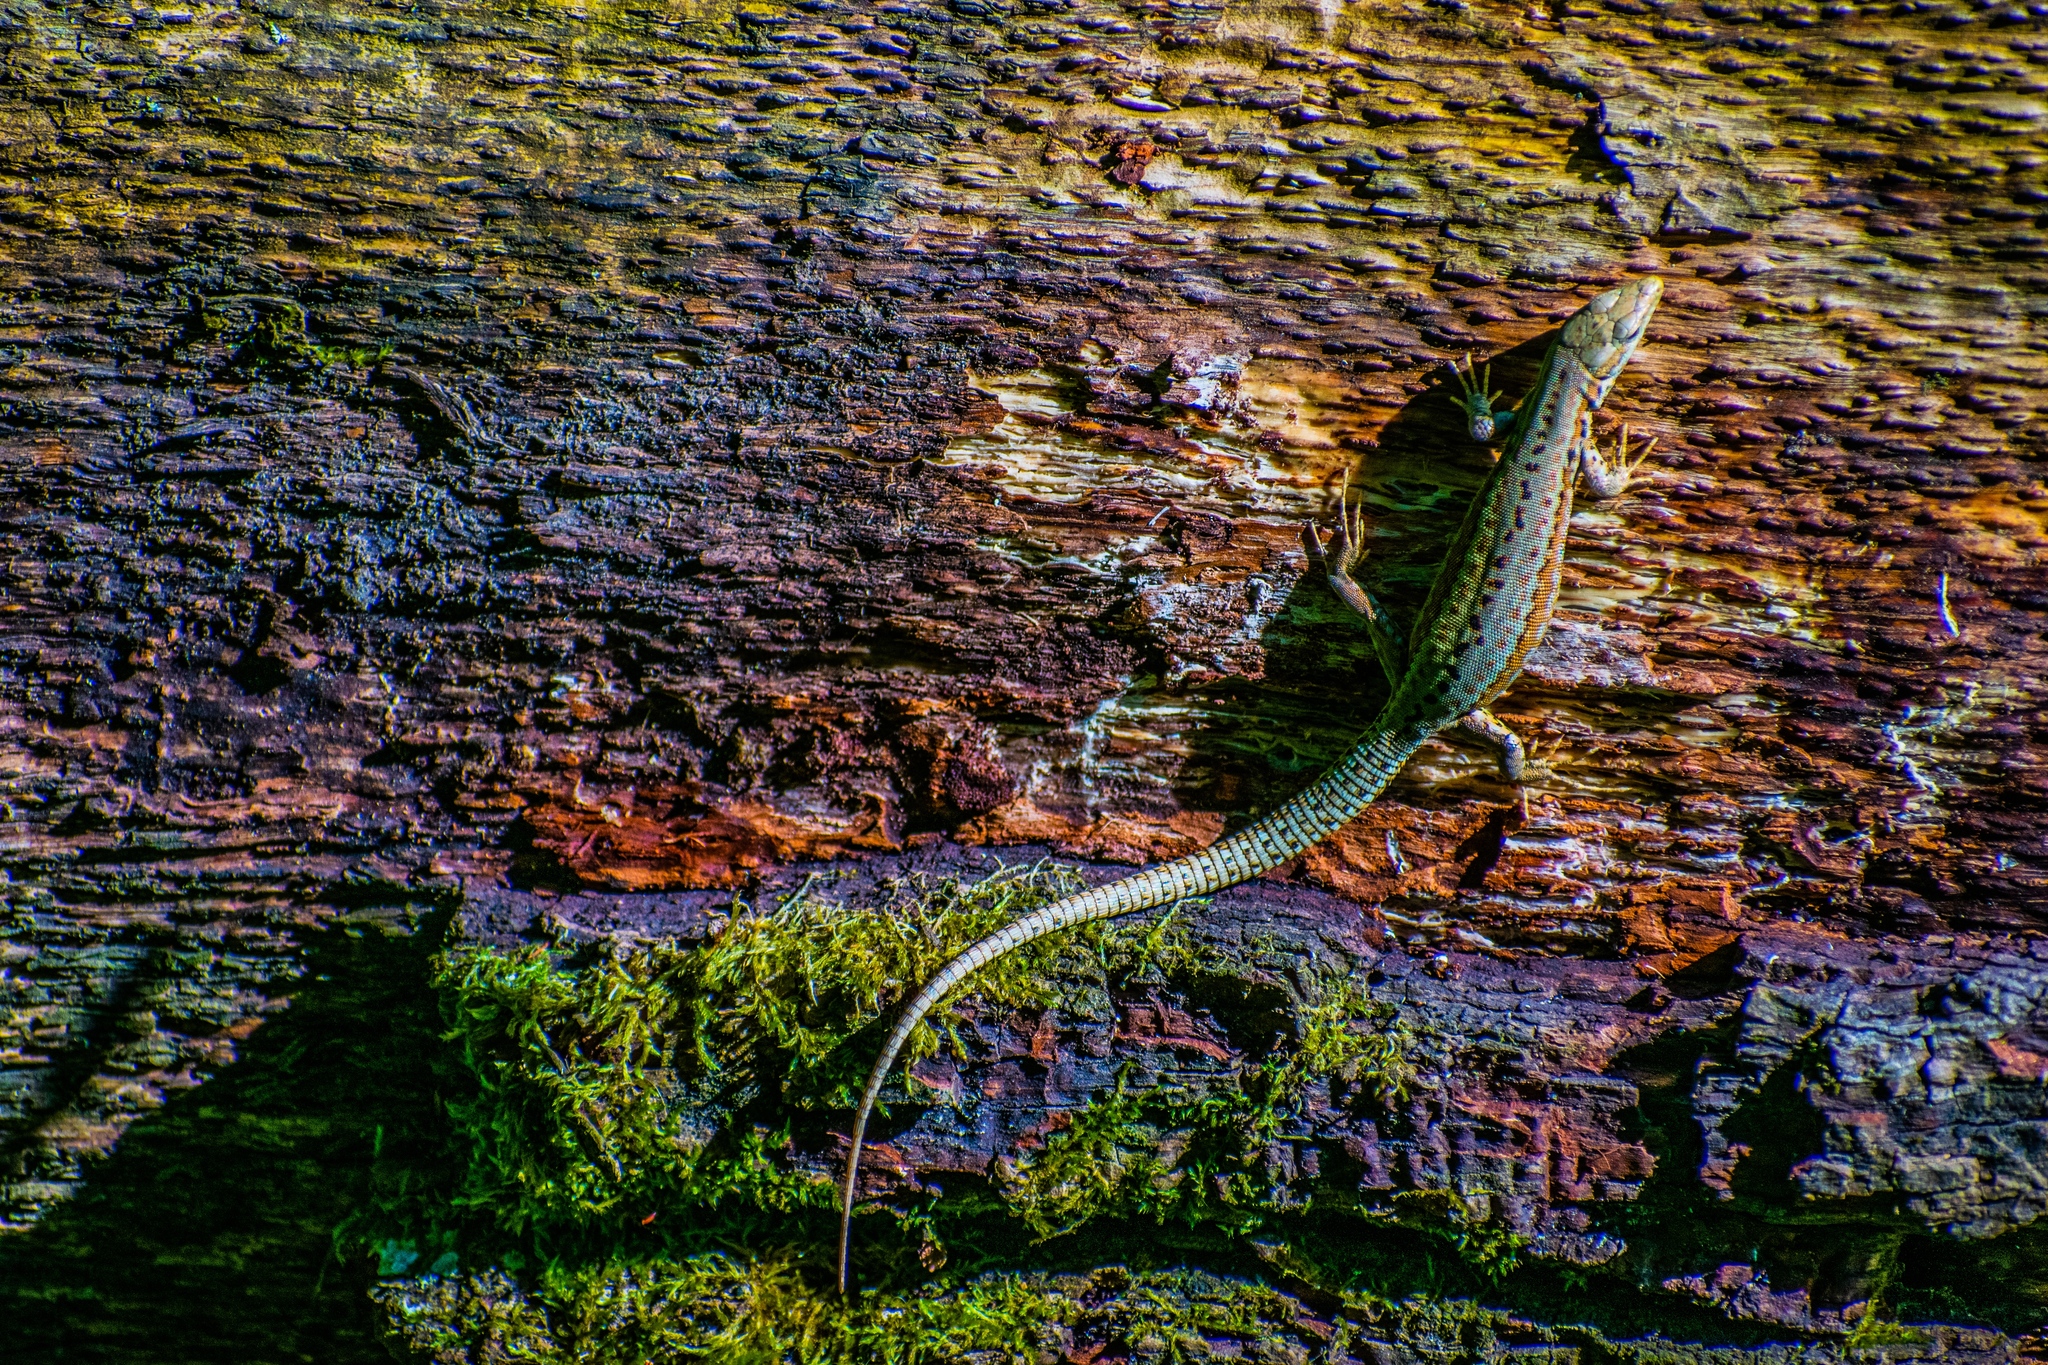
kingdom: Animalia
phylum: Chordata
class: Squamata
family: Lacertidae
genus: Podarcis
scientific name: Podarcis muralis
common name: Common wall lizard
